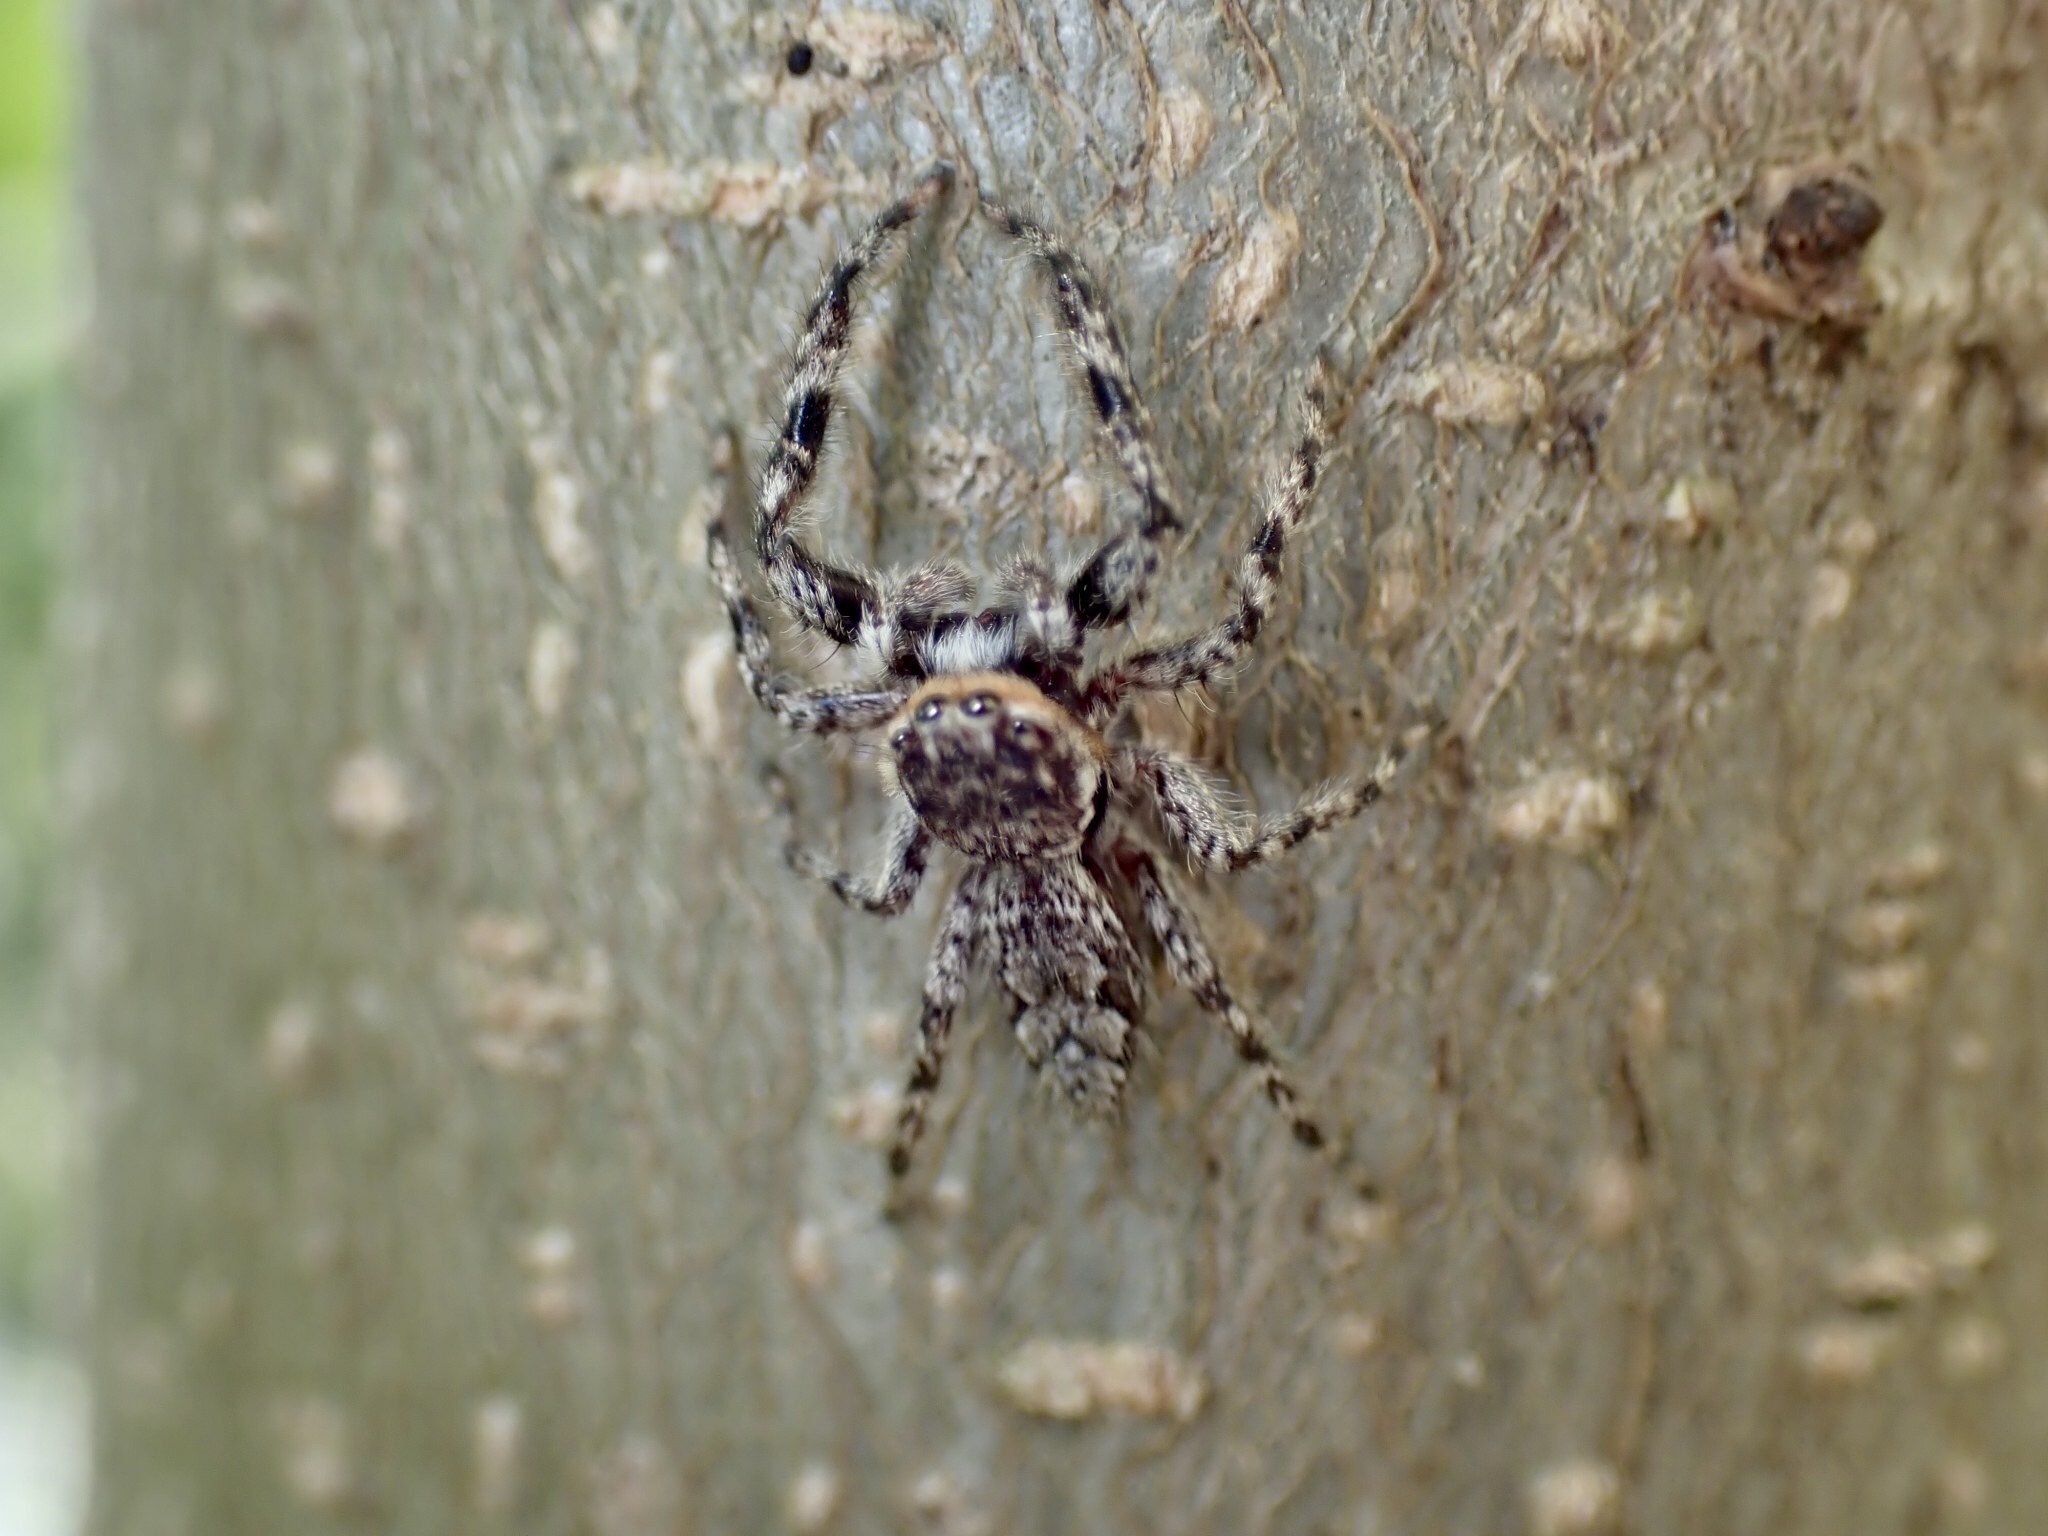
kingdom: Animalia
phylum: Arthropoda
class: Arachnida
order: Araneae
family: Salticidae
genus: Platycryptus
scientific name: Platycryptus undatus
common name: Tan jumping spider
